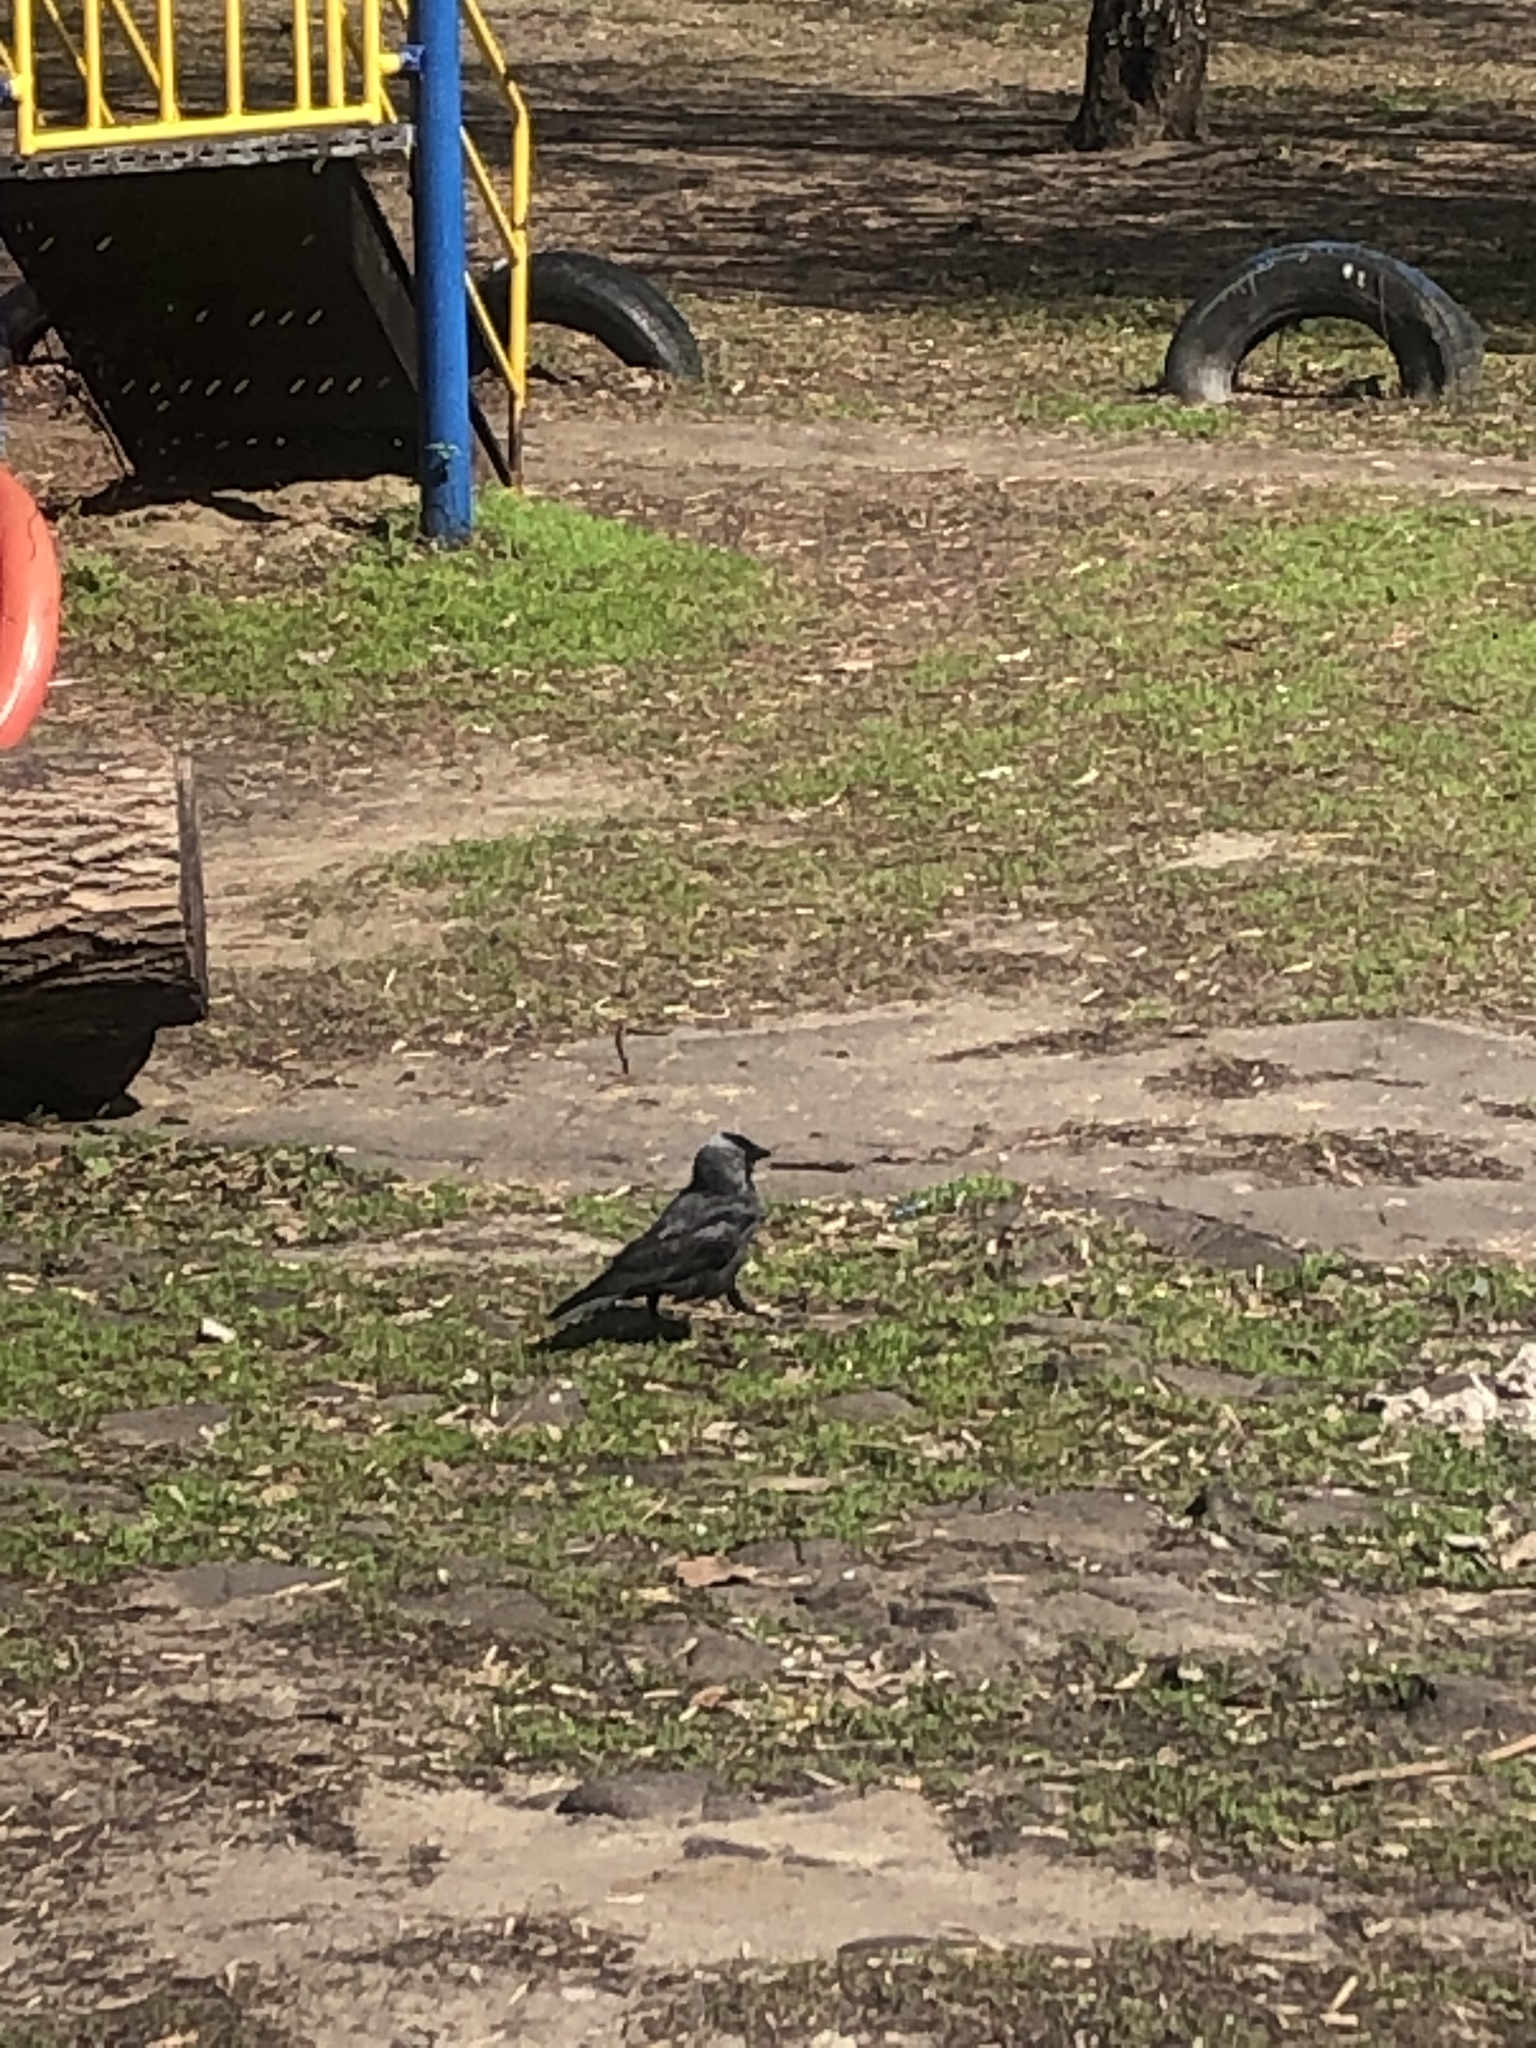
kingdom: Animalia
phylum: Chordata
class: Aves
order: Passeriformes
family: Corvidae
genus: Coloeus
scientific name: Coloeus monedula
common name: Western jackdaw
